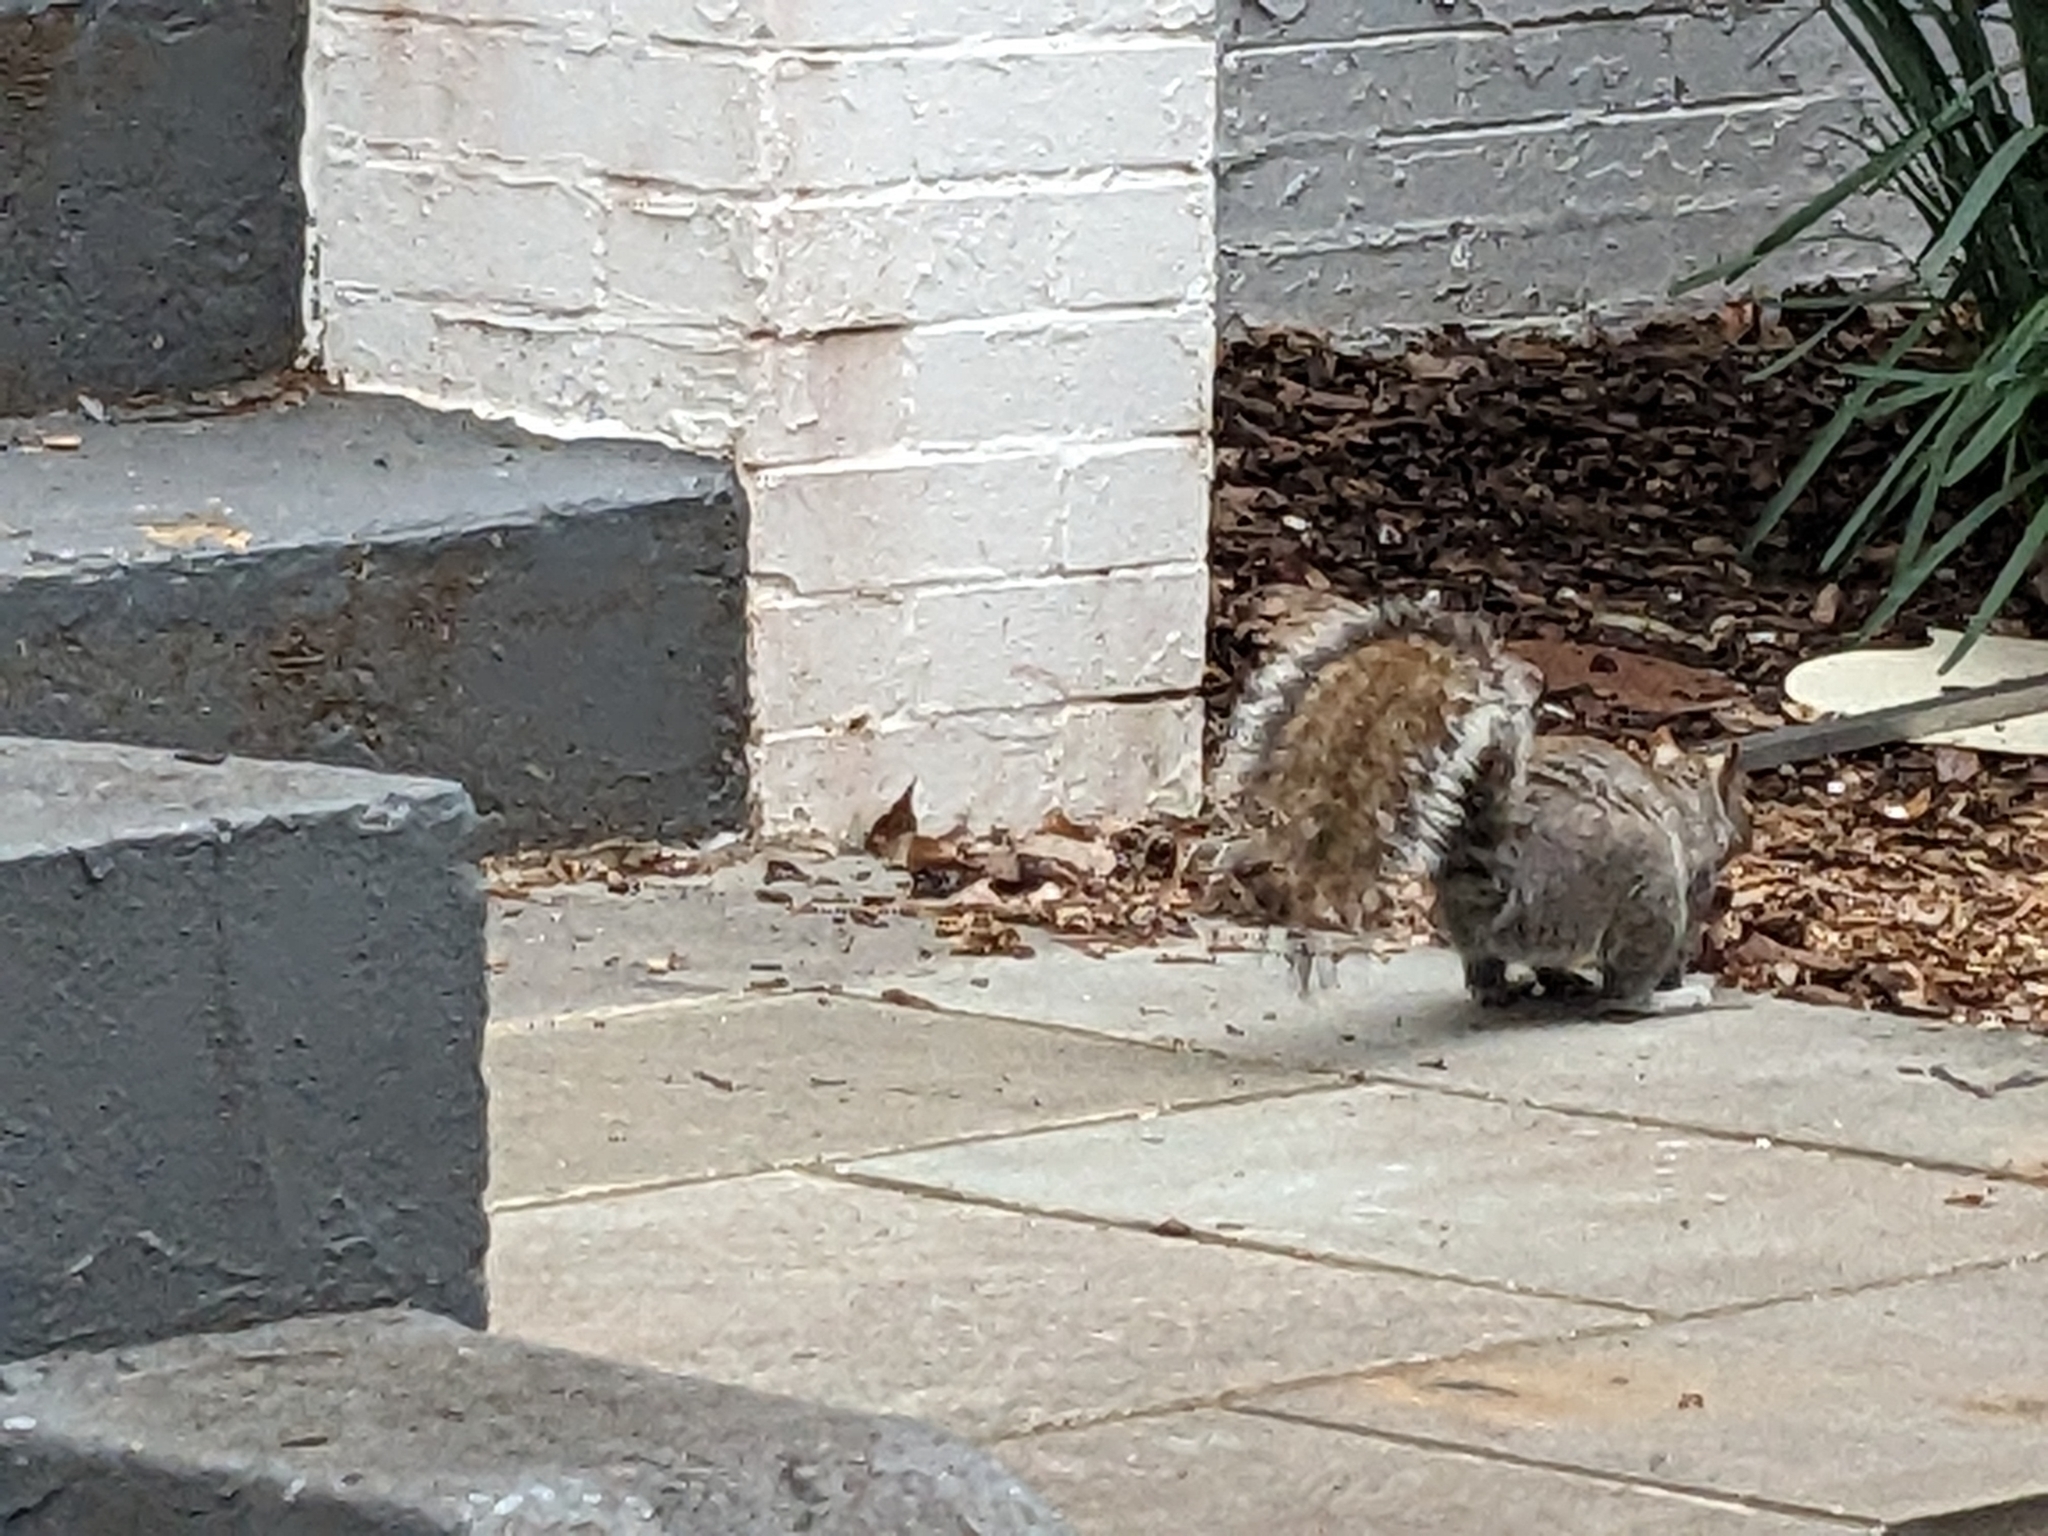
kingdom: Animalia
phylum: Chordata
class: Mammalia
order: Rodentia
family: Sciuridae
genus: Sciurus
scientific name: Sciurus carolinensis
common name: Eastern gray squirrel
